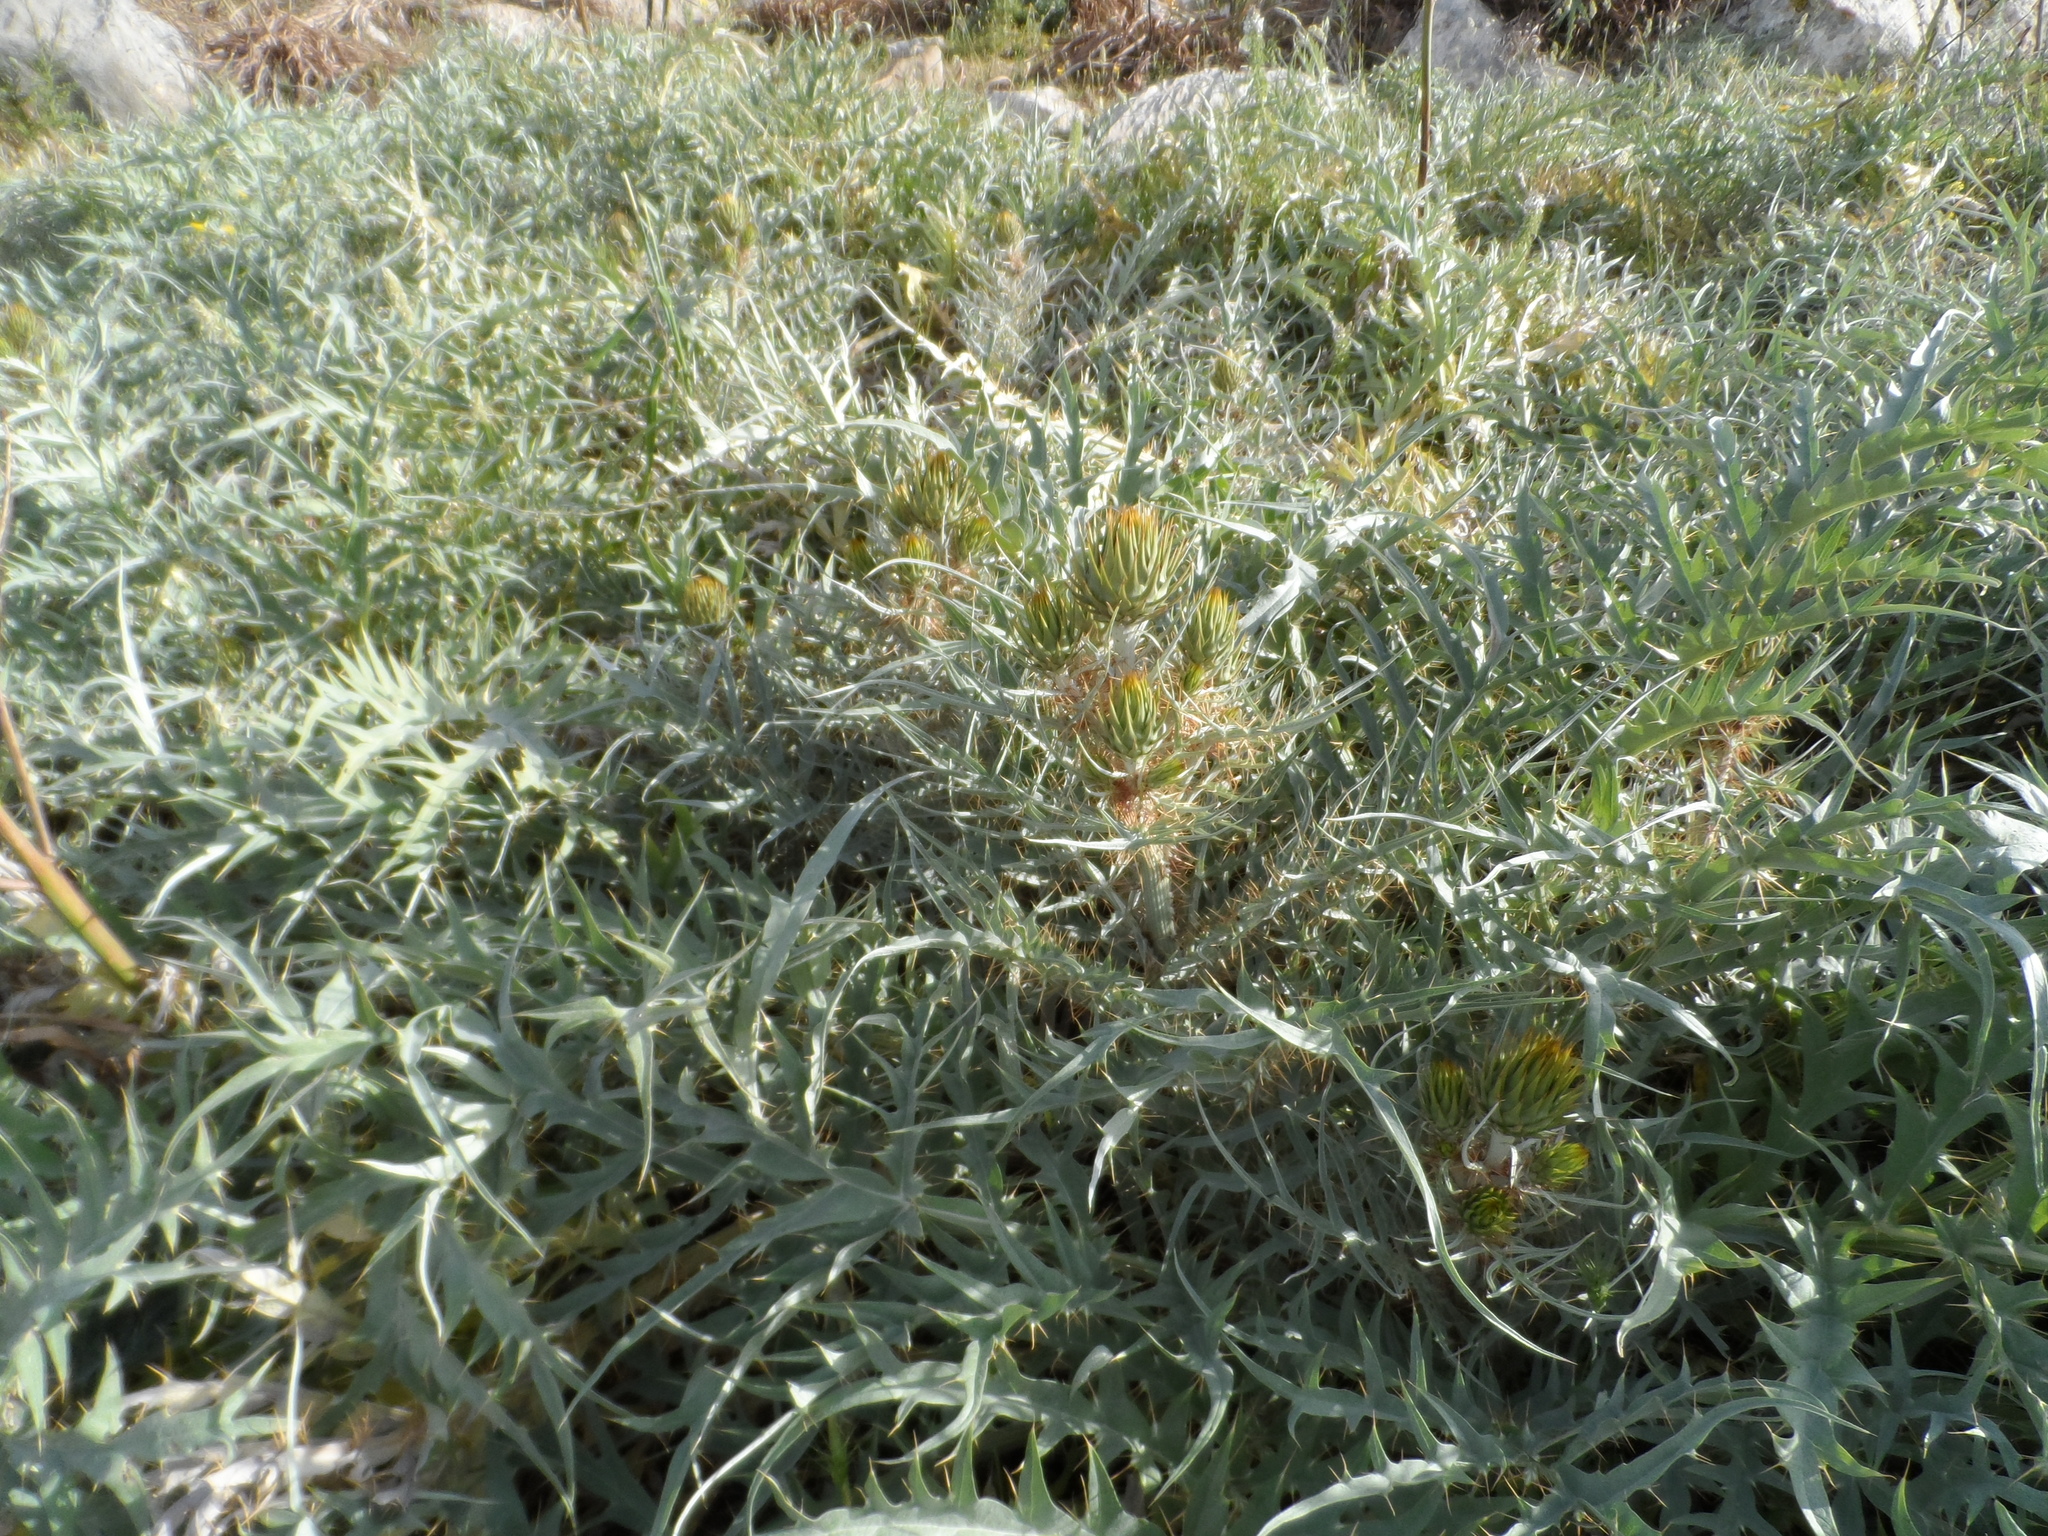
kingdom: Plantae
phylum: Tracheophyta
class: Magnoliopsida
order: Asterales
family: Asteraceae
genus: Cynara
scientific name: Cynara cardunculus
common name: Globe artichoke
